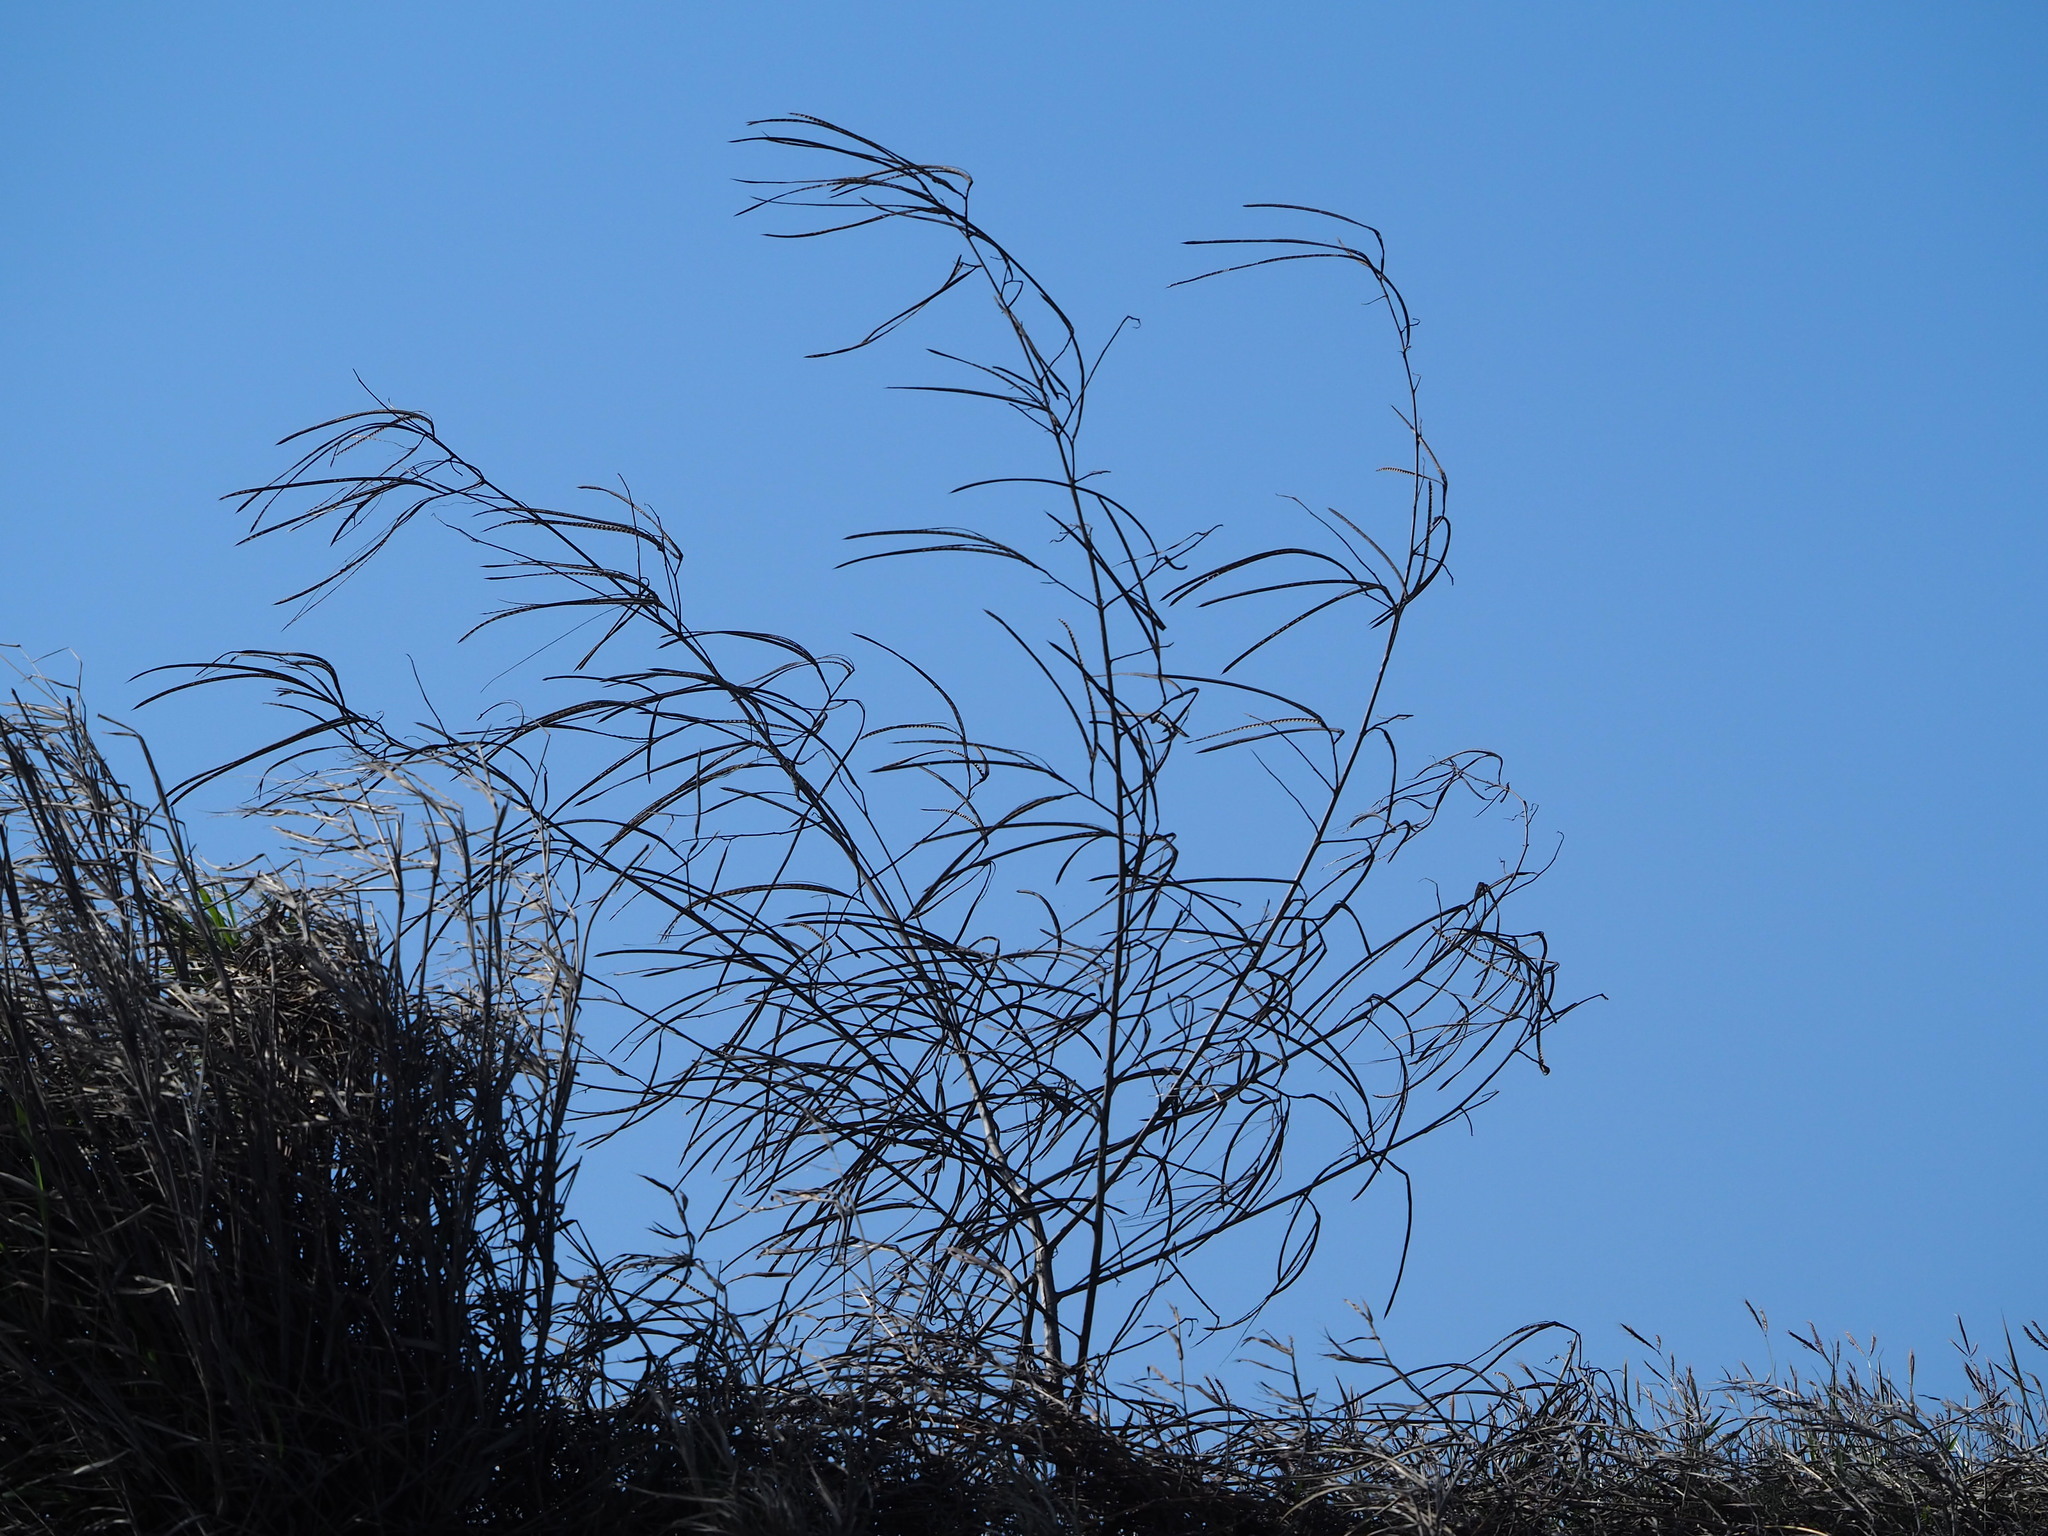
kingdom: Plantae
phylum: Tracheophyta
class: Magnoliopsida
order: Fabales
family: Fabaceae
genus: Sesbania
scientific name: Sesbania cannabina
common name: Canicha
